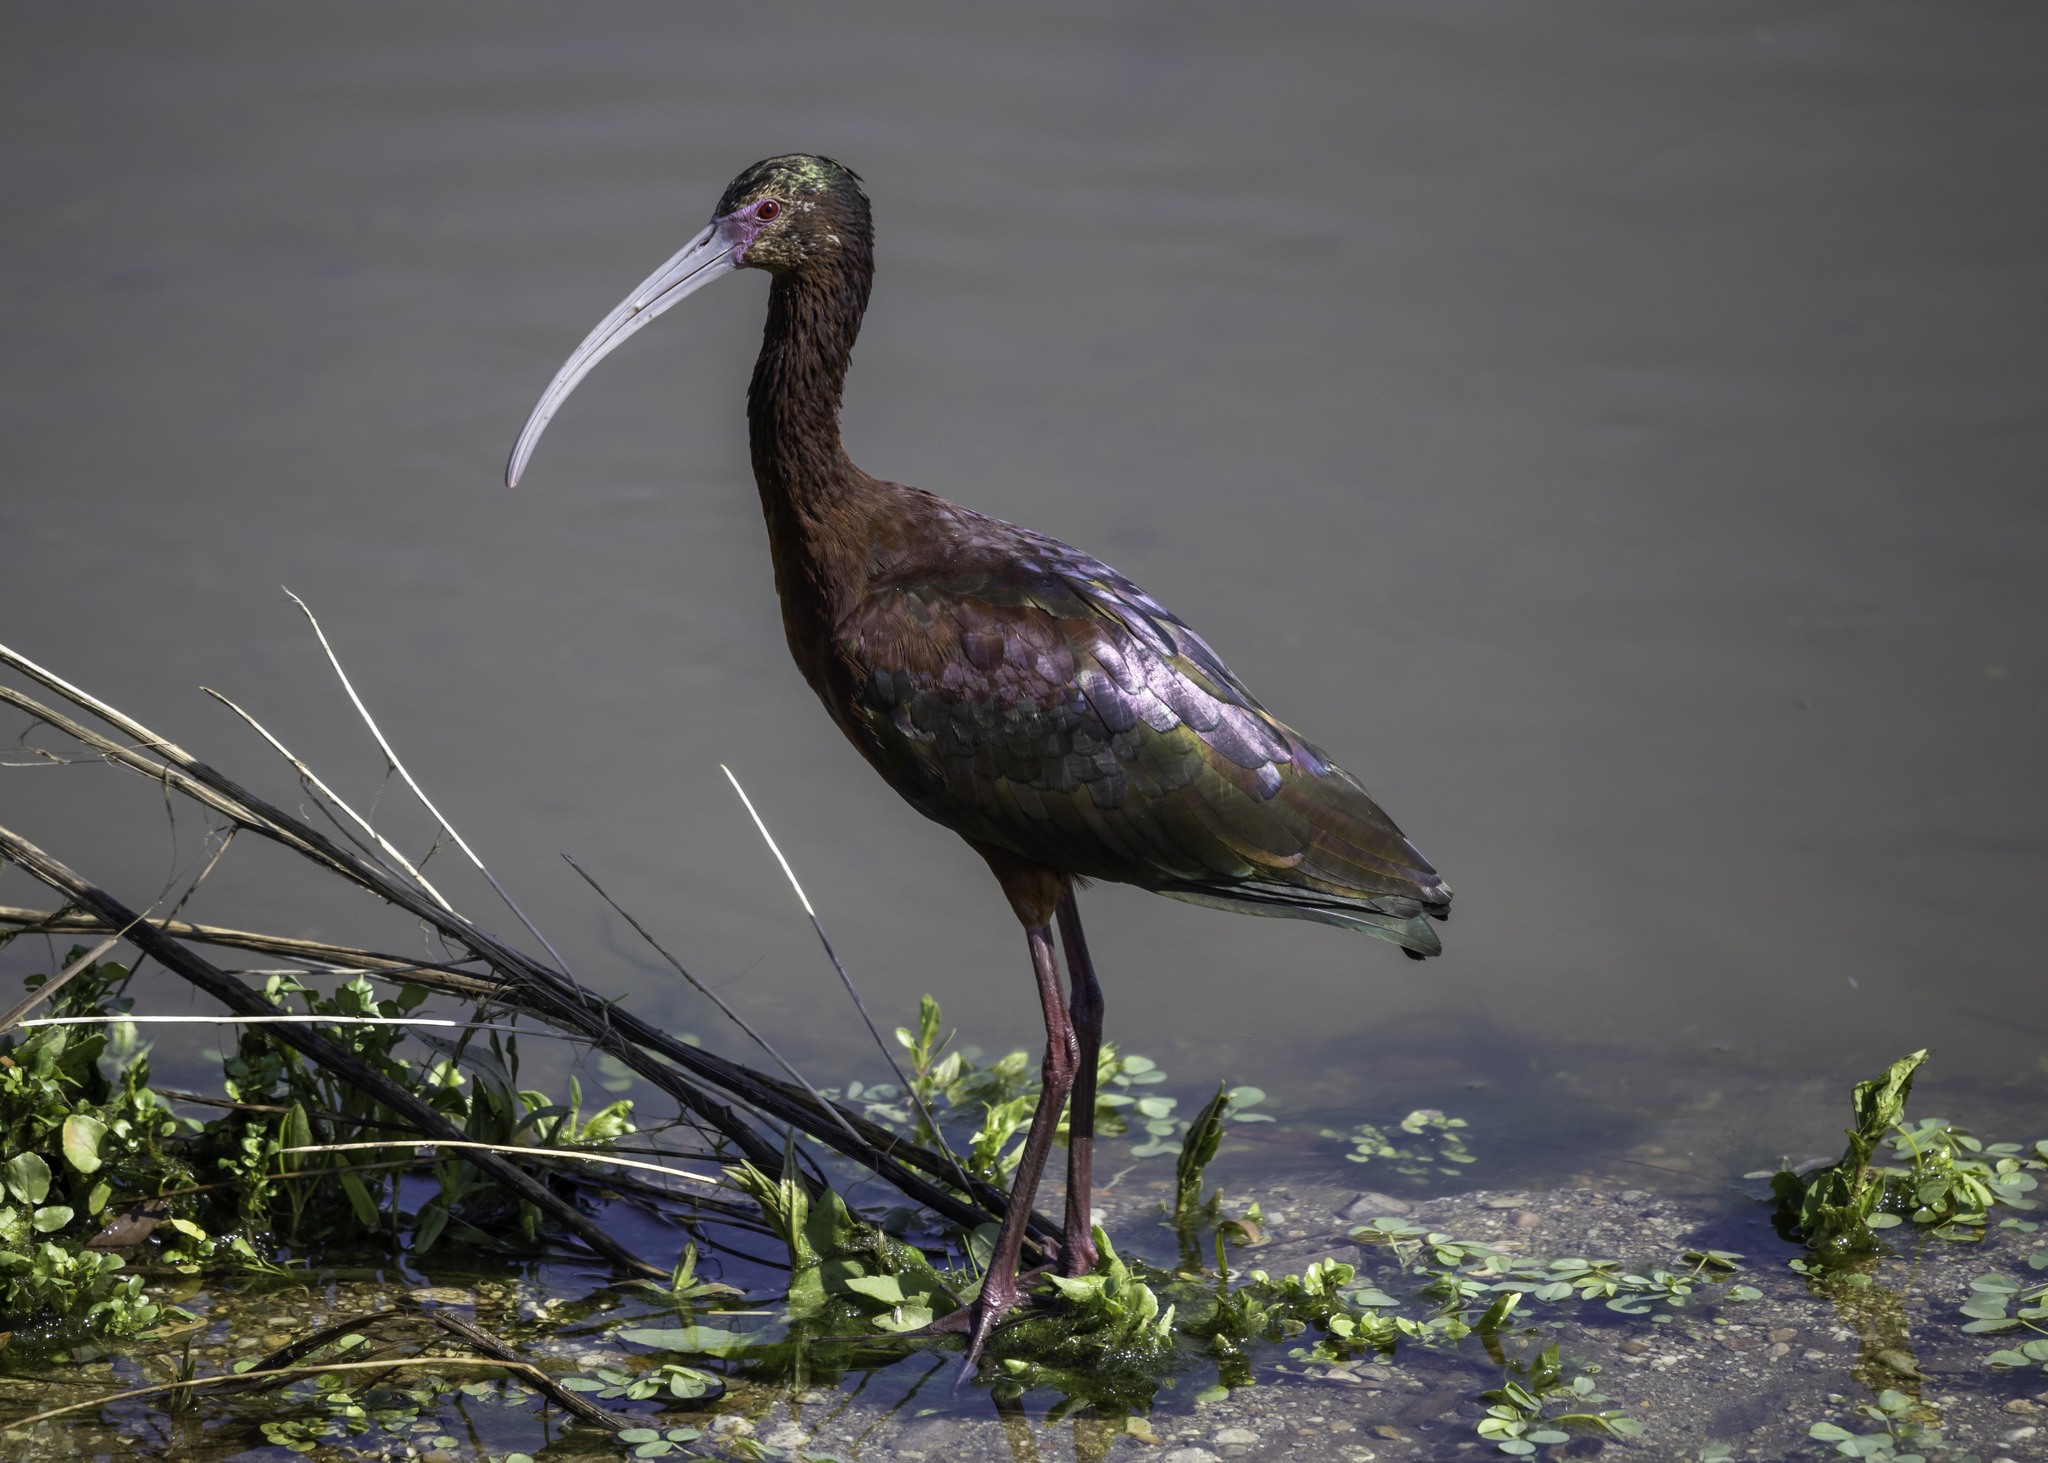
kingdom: Animalia
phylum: Chordata
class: Aves
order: Pelecaniformes
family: Threskiornithidae
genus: Plegadis
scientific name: Plegadis chihi
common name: White-faced ibis
